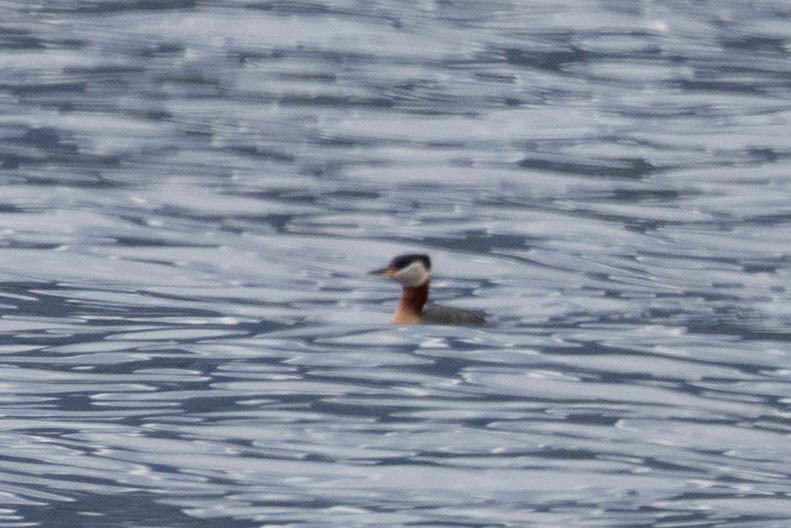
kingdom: Animalia
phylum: Chordata
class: Aves
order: Podicipediformes
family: Podicipedidae
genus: Podiceps
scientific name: Podiceps grisegena
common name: Red-necked grebe
